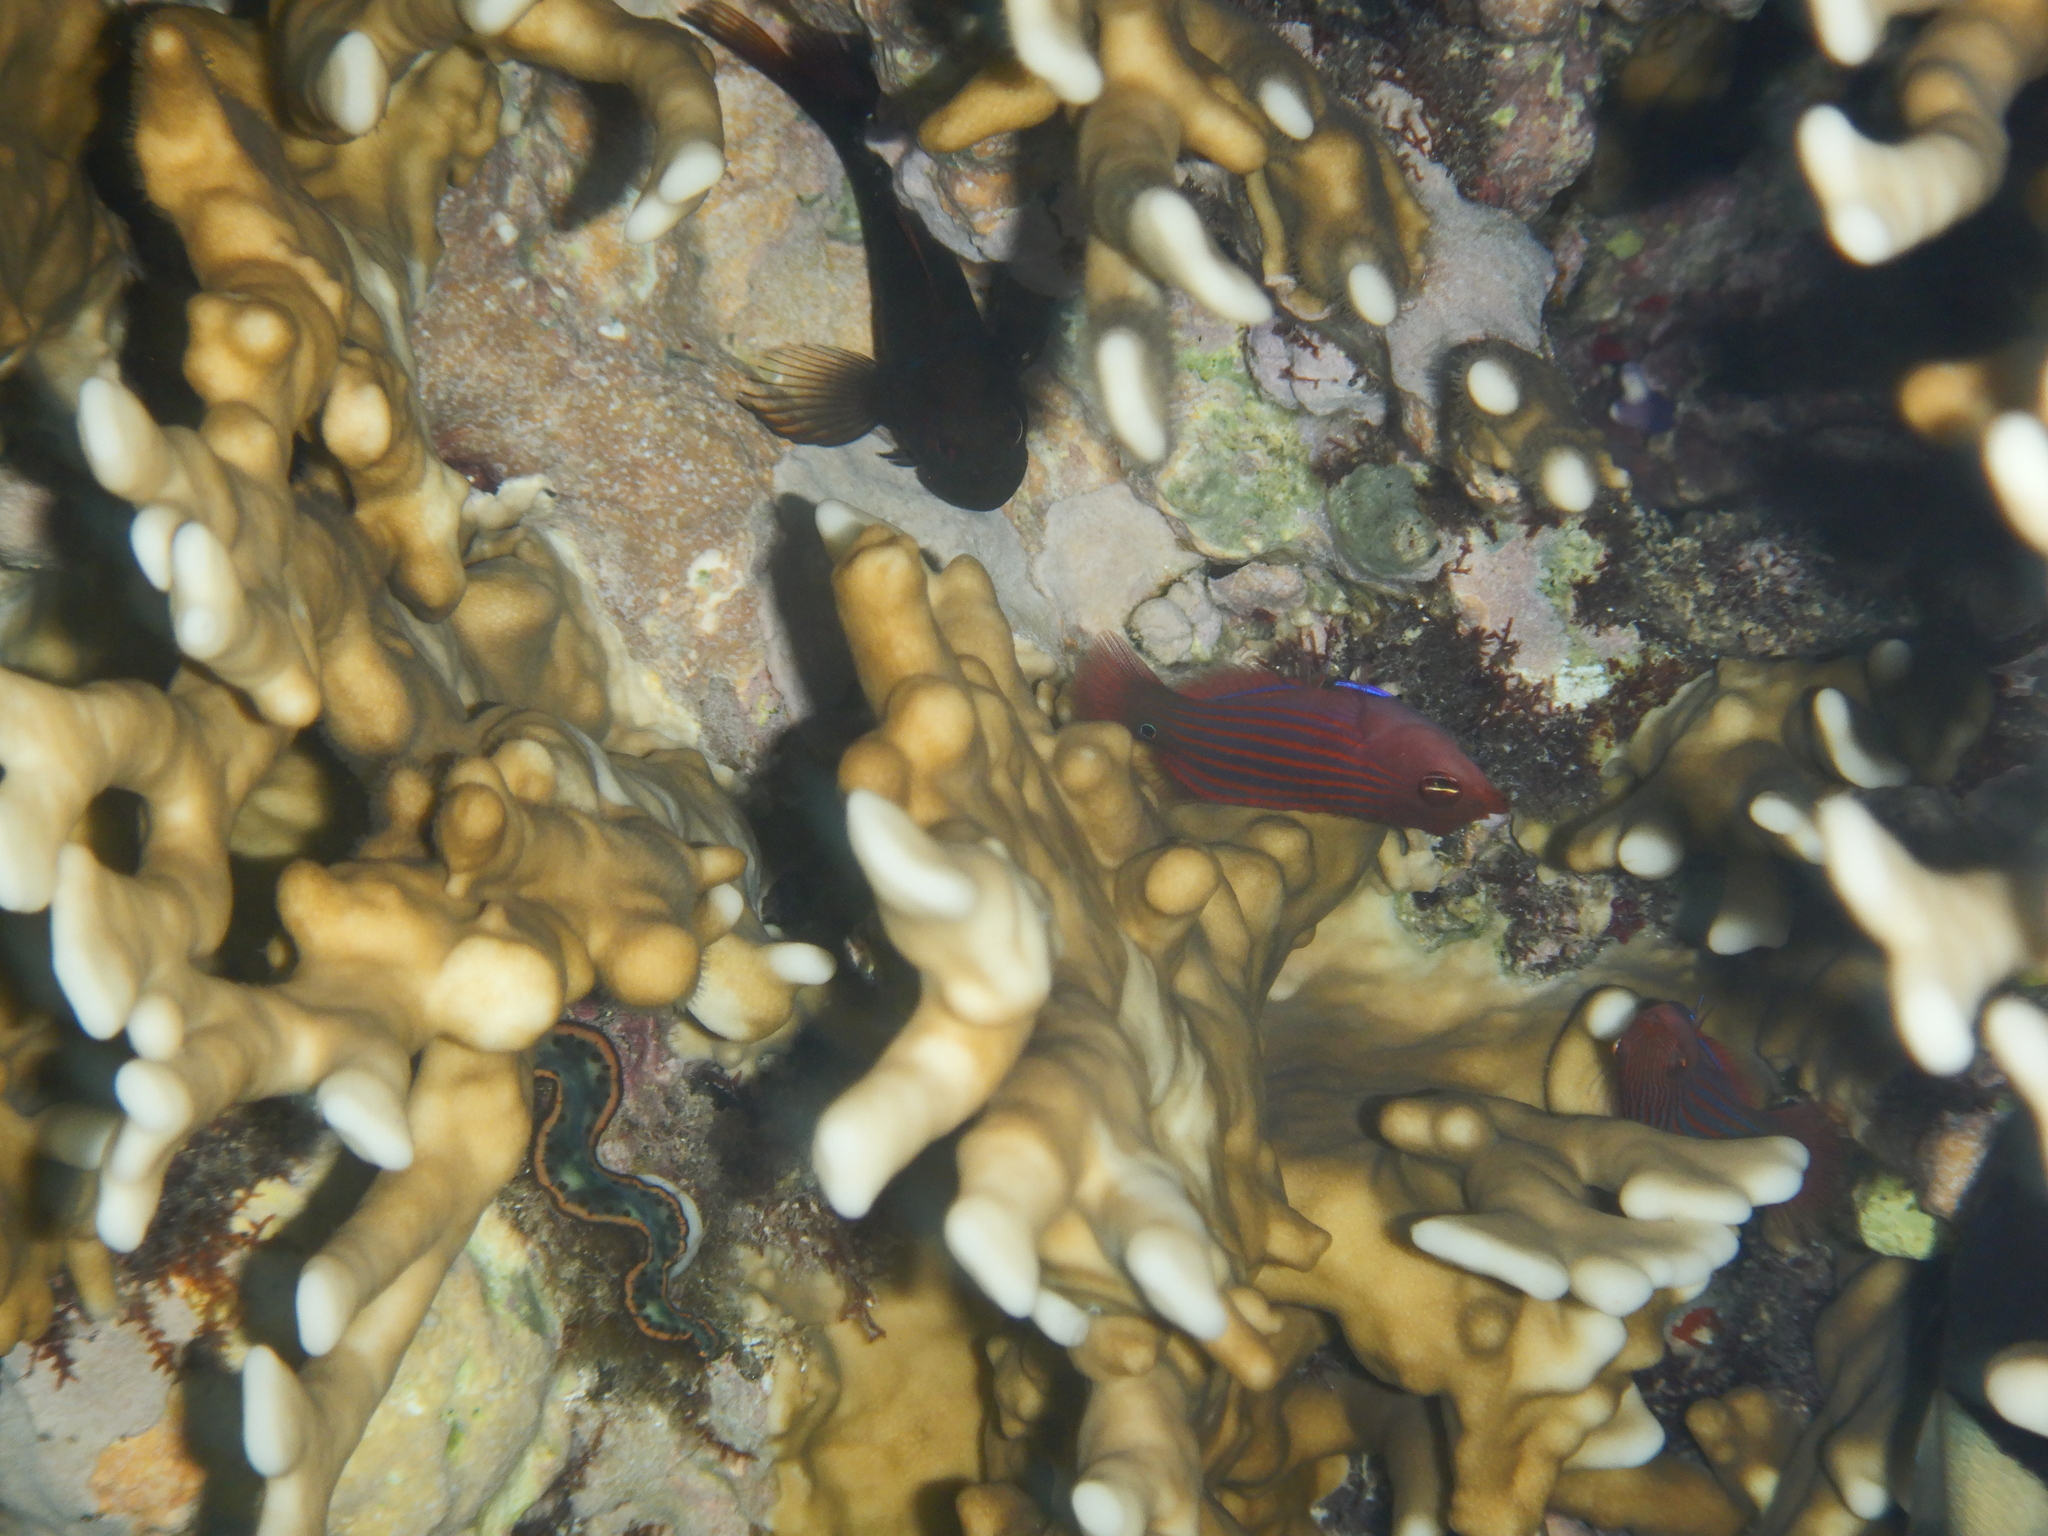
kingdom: Animalia
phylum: Chordata
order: Perciformes
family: Labridae
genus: Pseudocheilinus
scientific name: Pseudocheilinus hexataenia
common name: Sixline wrasse
